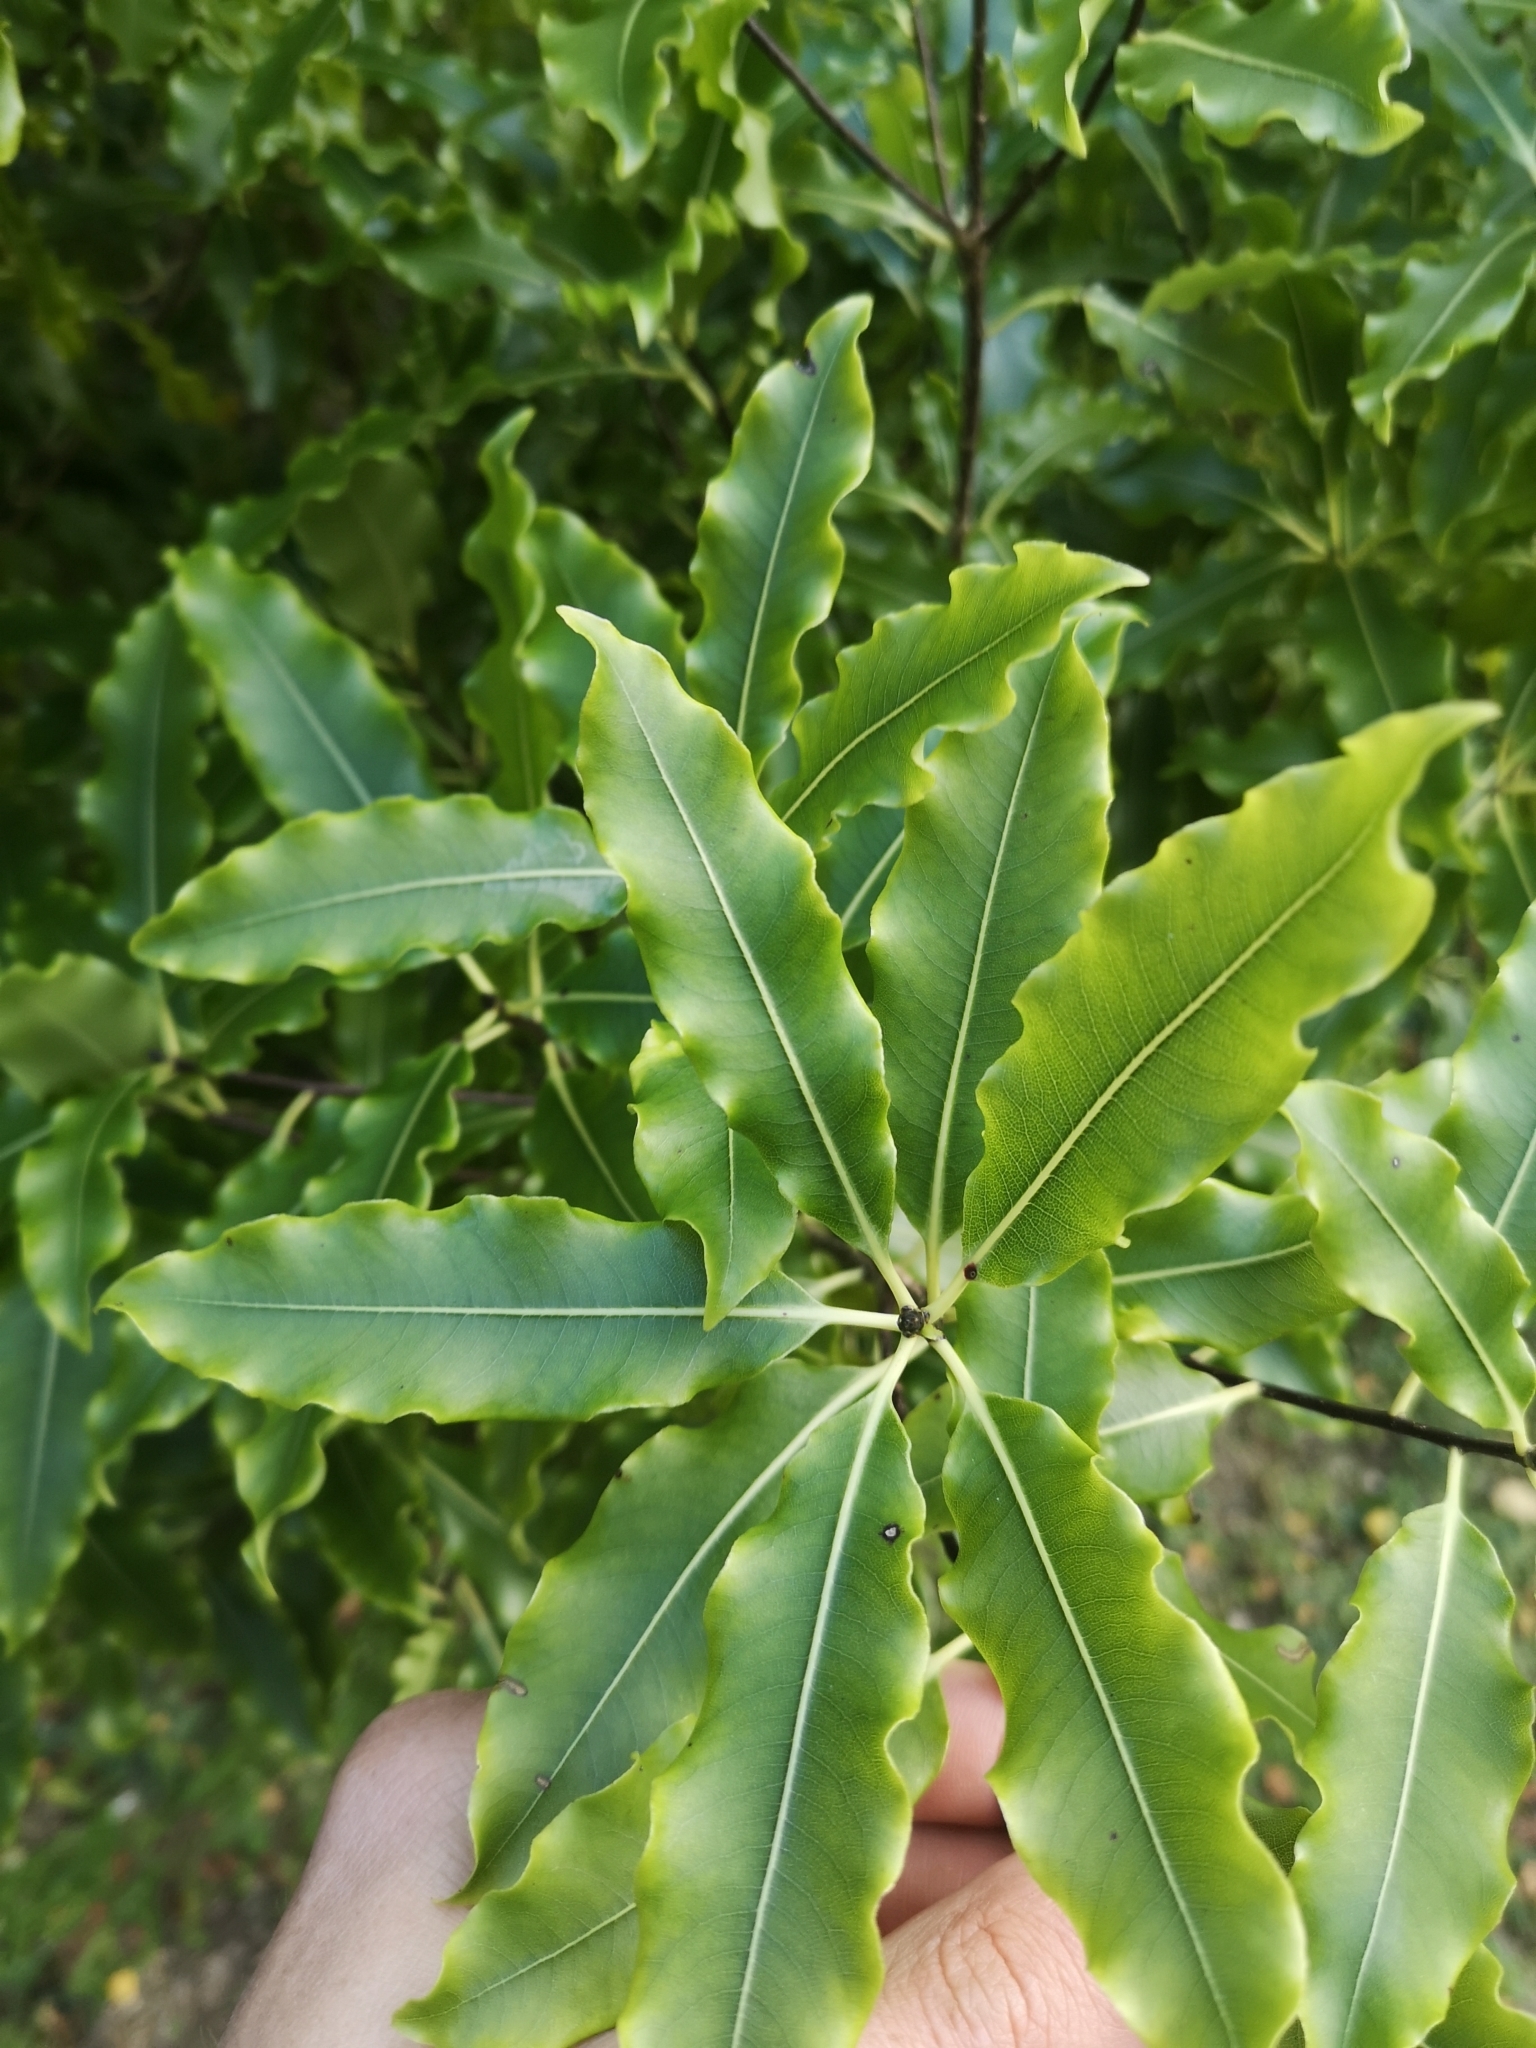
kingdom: Plantae
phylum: Tracheophyta
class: Magnoliopsida
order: Apiales
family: Pittosporaceae
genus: Pittosporum
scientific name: Pittosporum eugenioides
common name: Lemonwood
